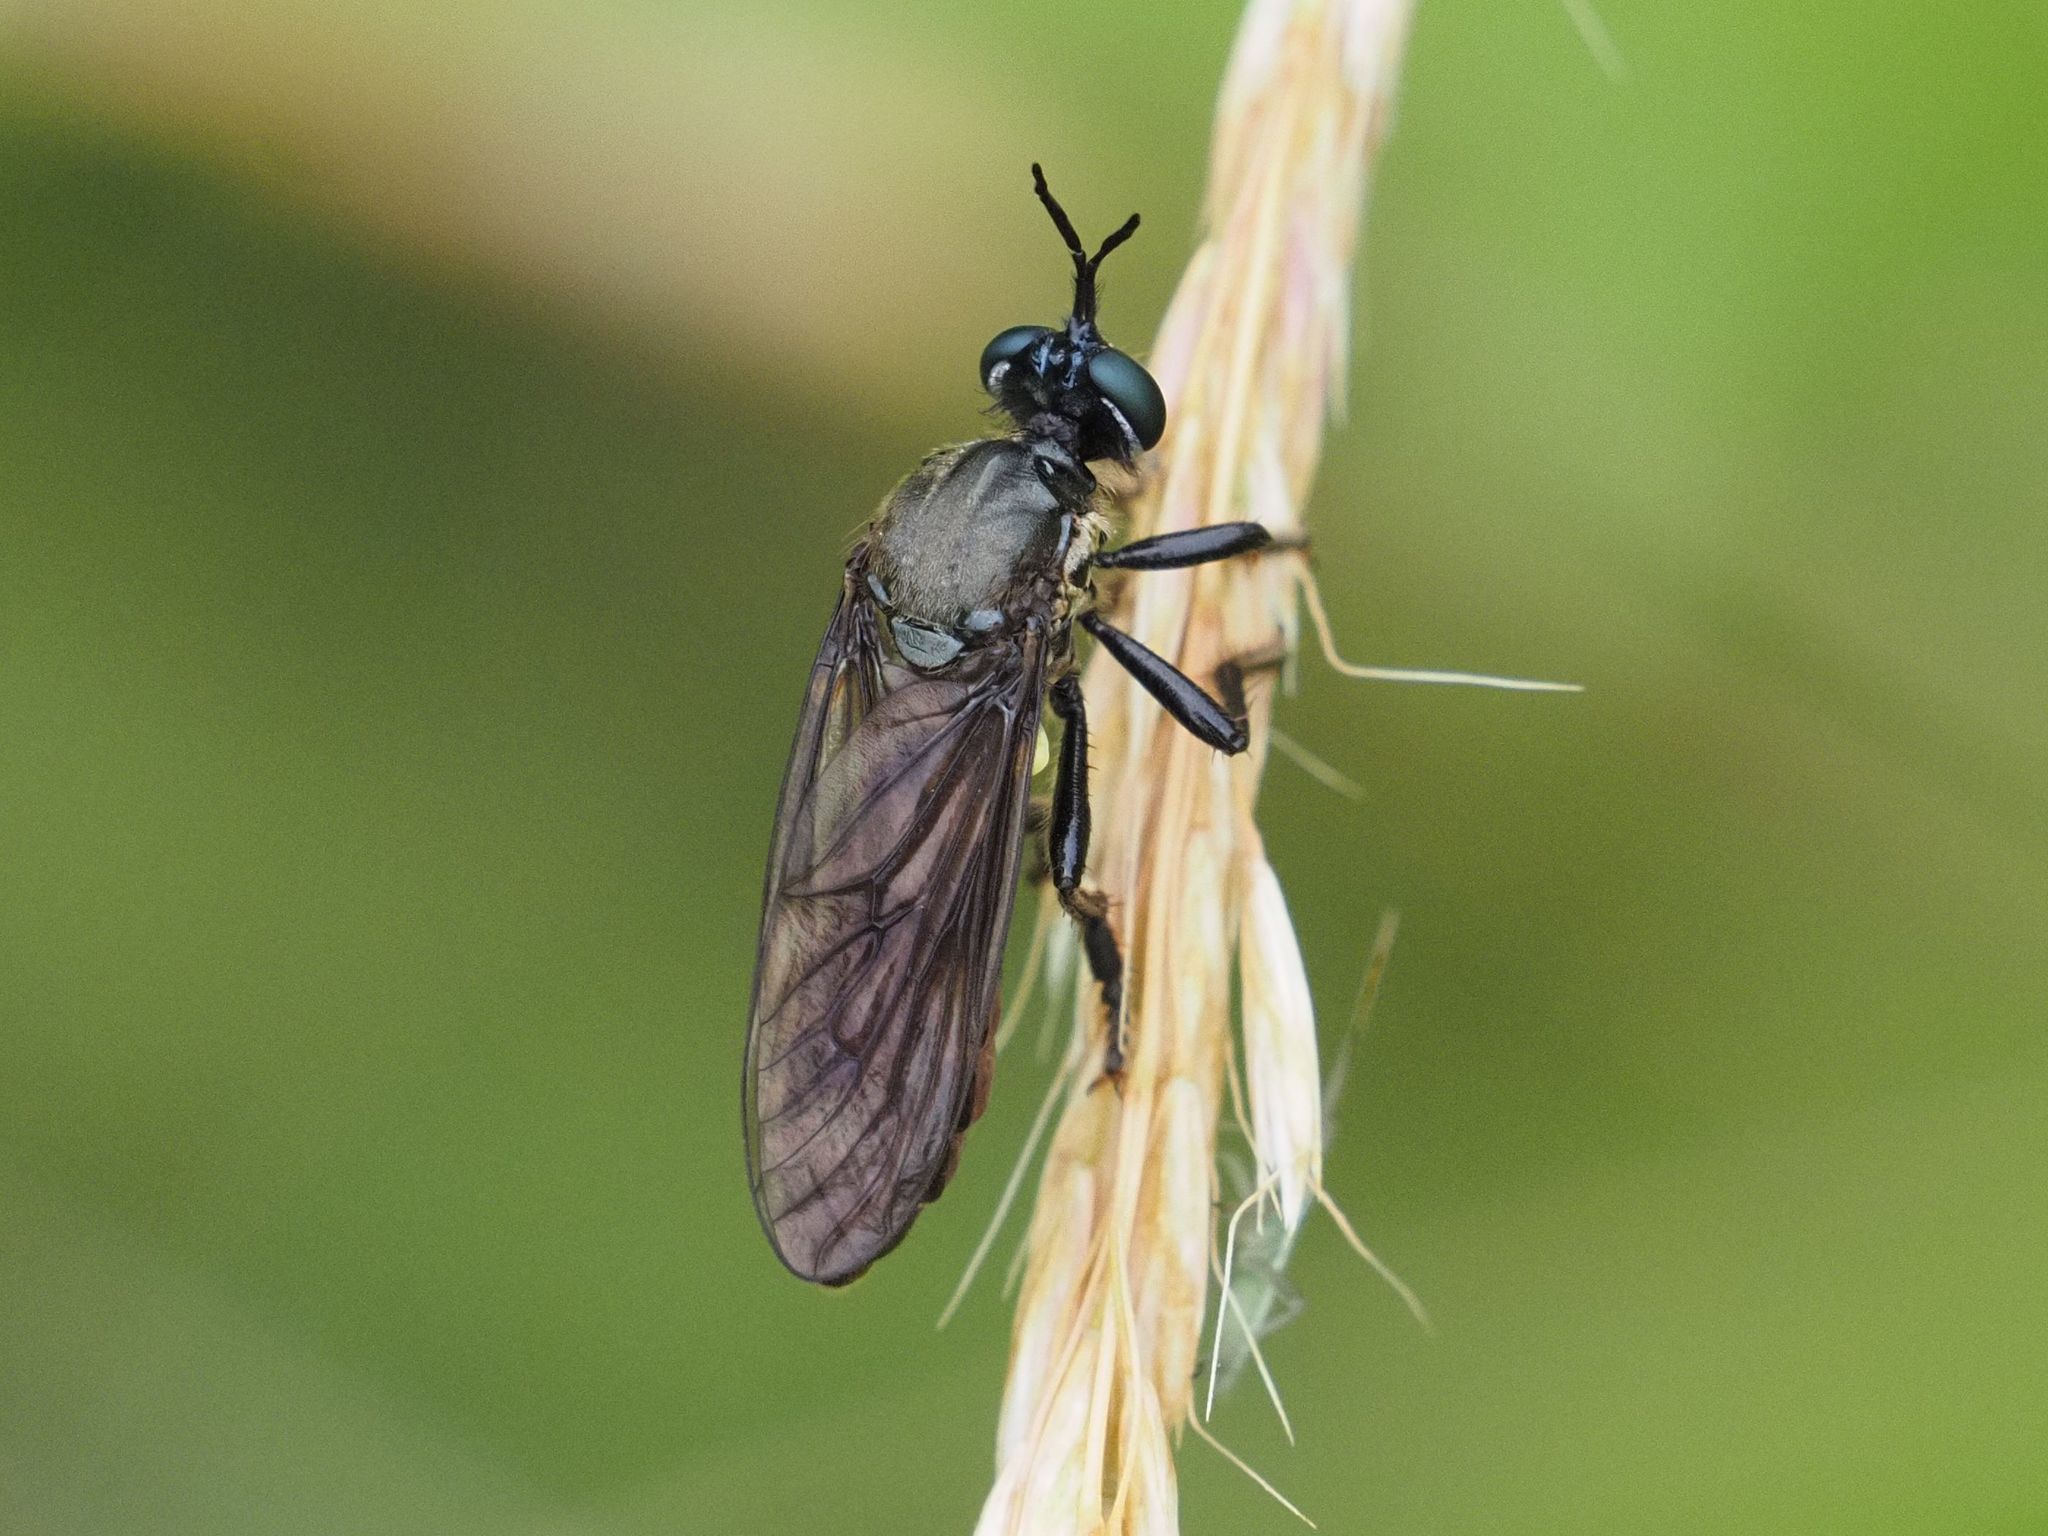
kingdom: Animalia
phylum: Arthropoda
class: Insecta
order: Diptera
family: Asilidae
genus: Dioctria
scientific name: Dioctria atricapilla
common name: Violet black-legged
